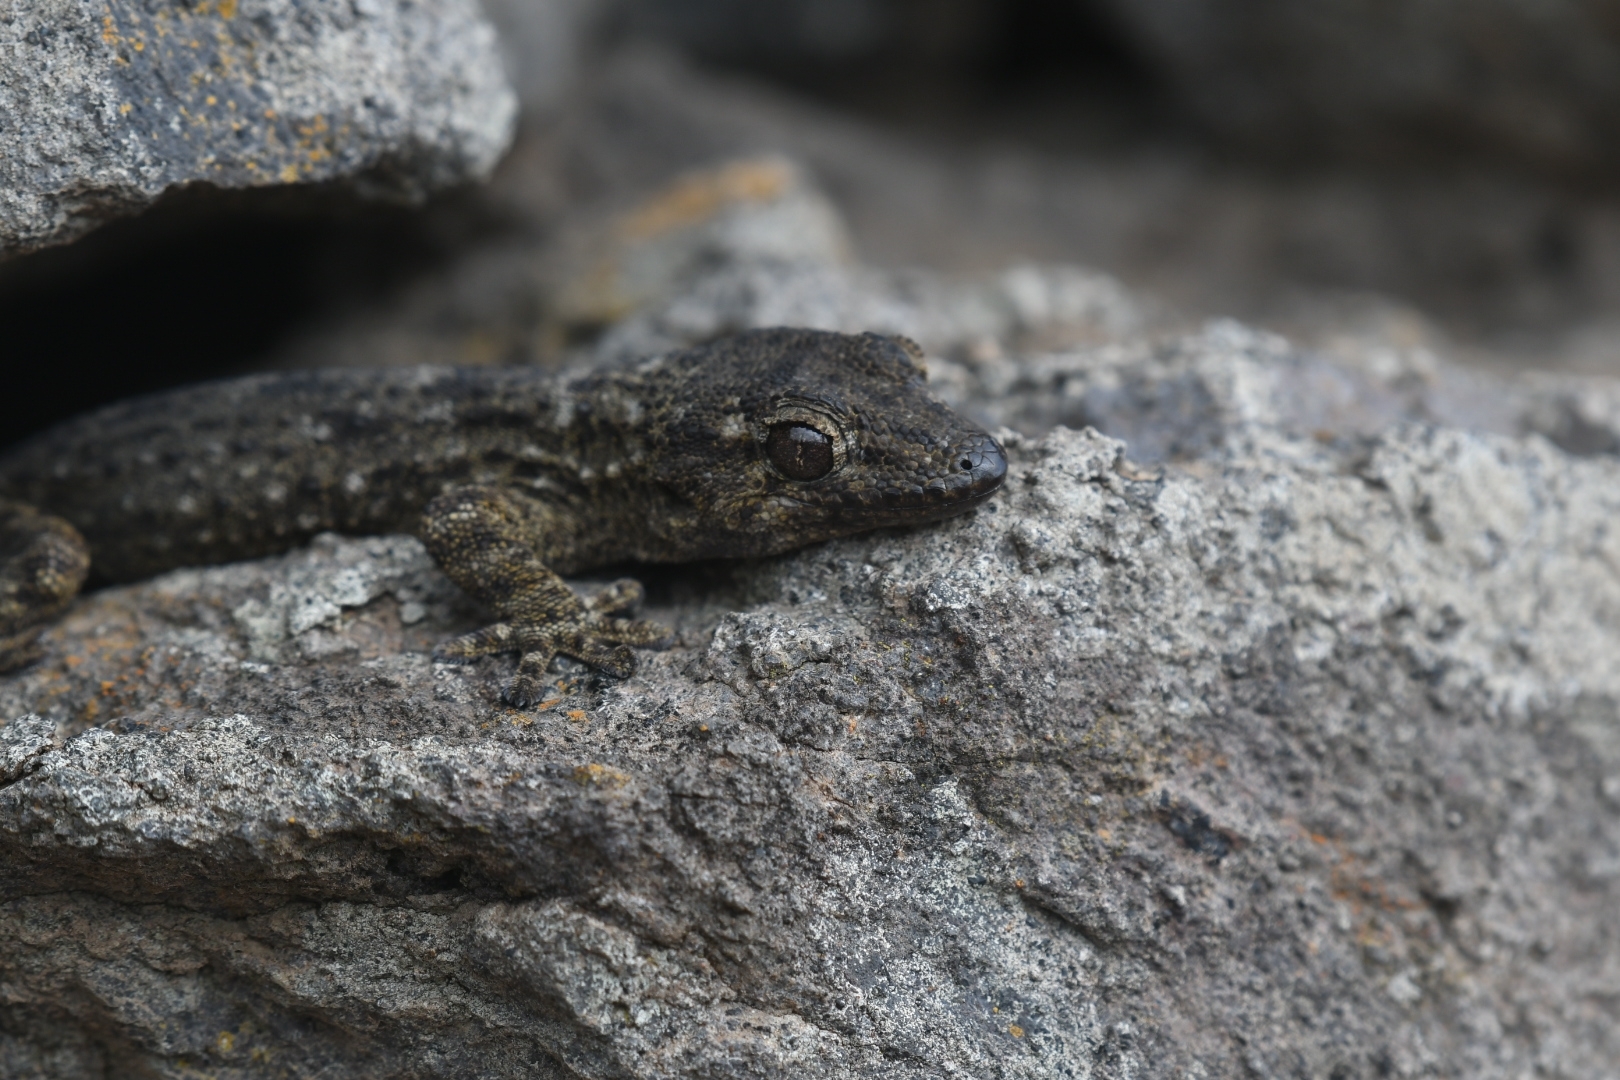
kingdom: Animalia
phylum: Chordata
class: Squamata
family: Phyllodactylidae
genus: Tarentola
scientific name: Tarentola delalandii
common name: Tenerife wall gecko
